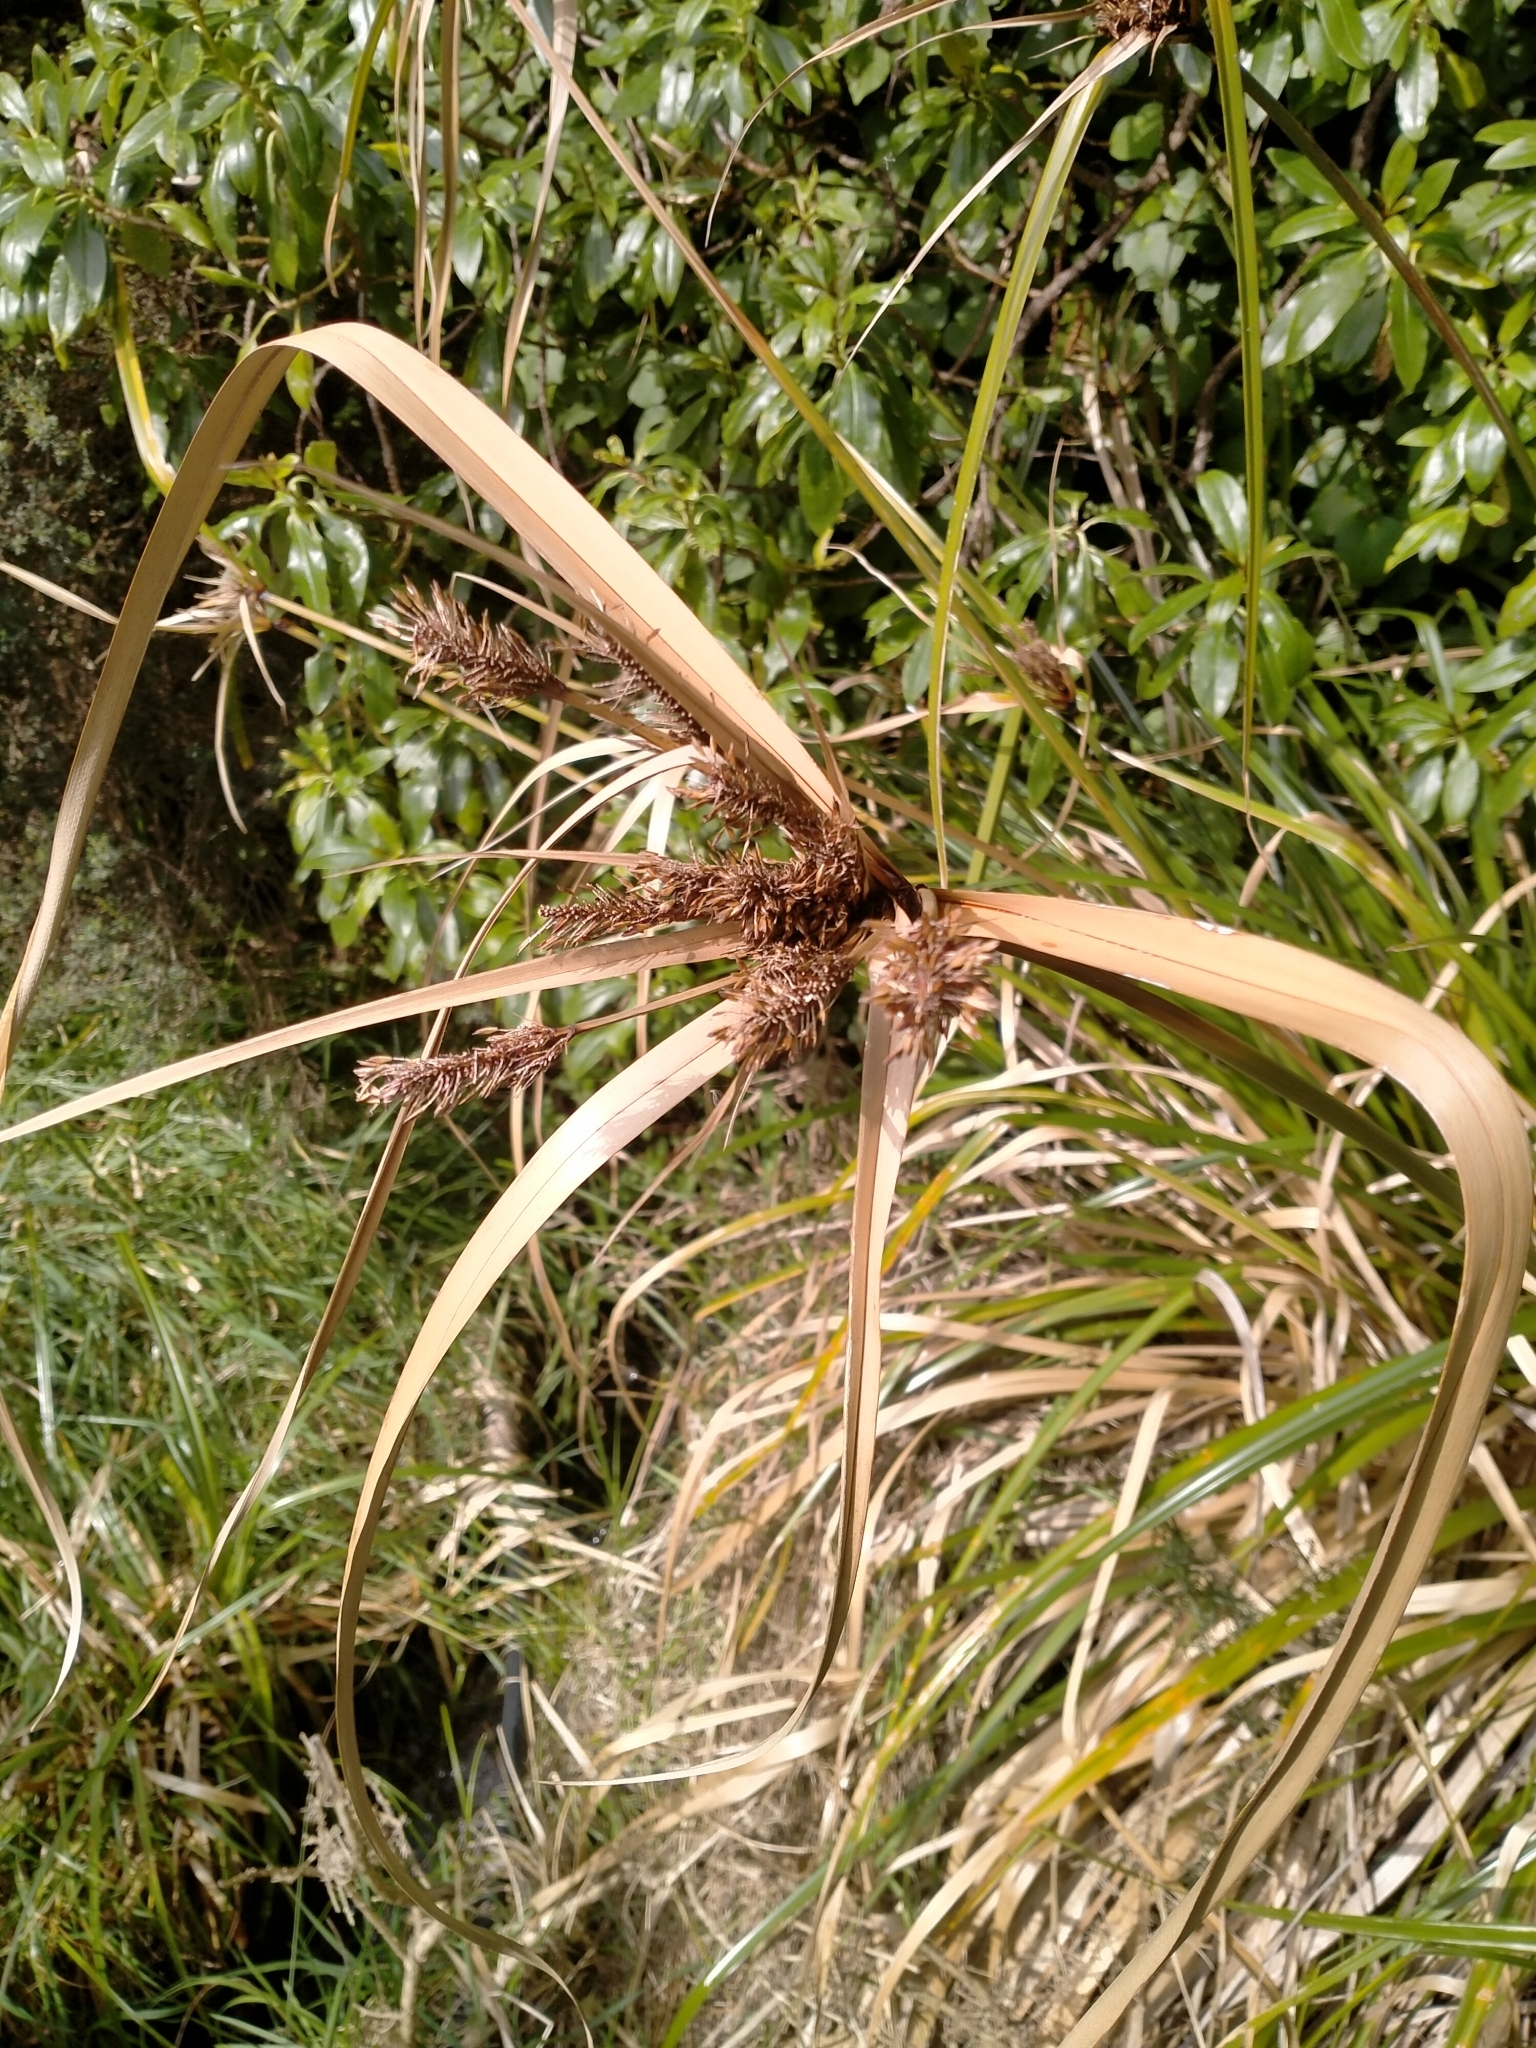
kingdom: Plantae
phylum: Tracheophyta
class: Liliopsida
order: Poales
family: Cyperaceae
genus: Cyperus
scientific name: Cyperus ustulatus
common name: Giant umbrella-sedge
